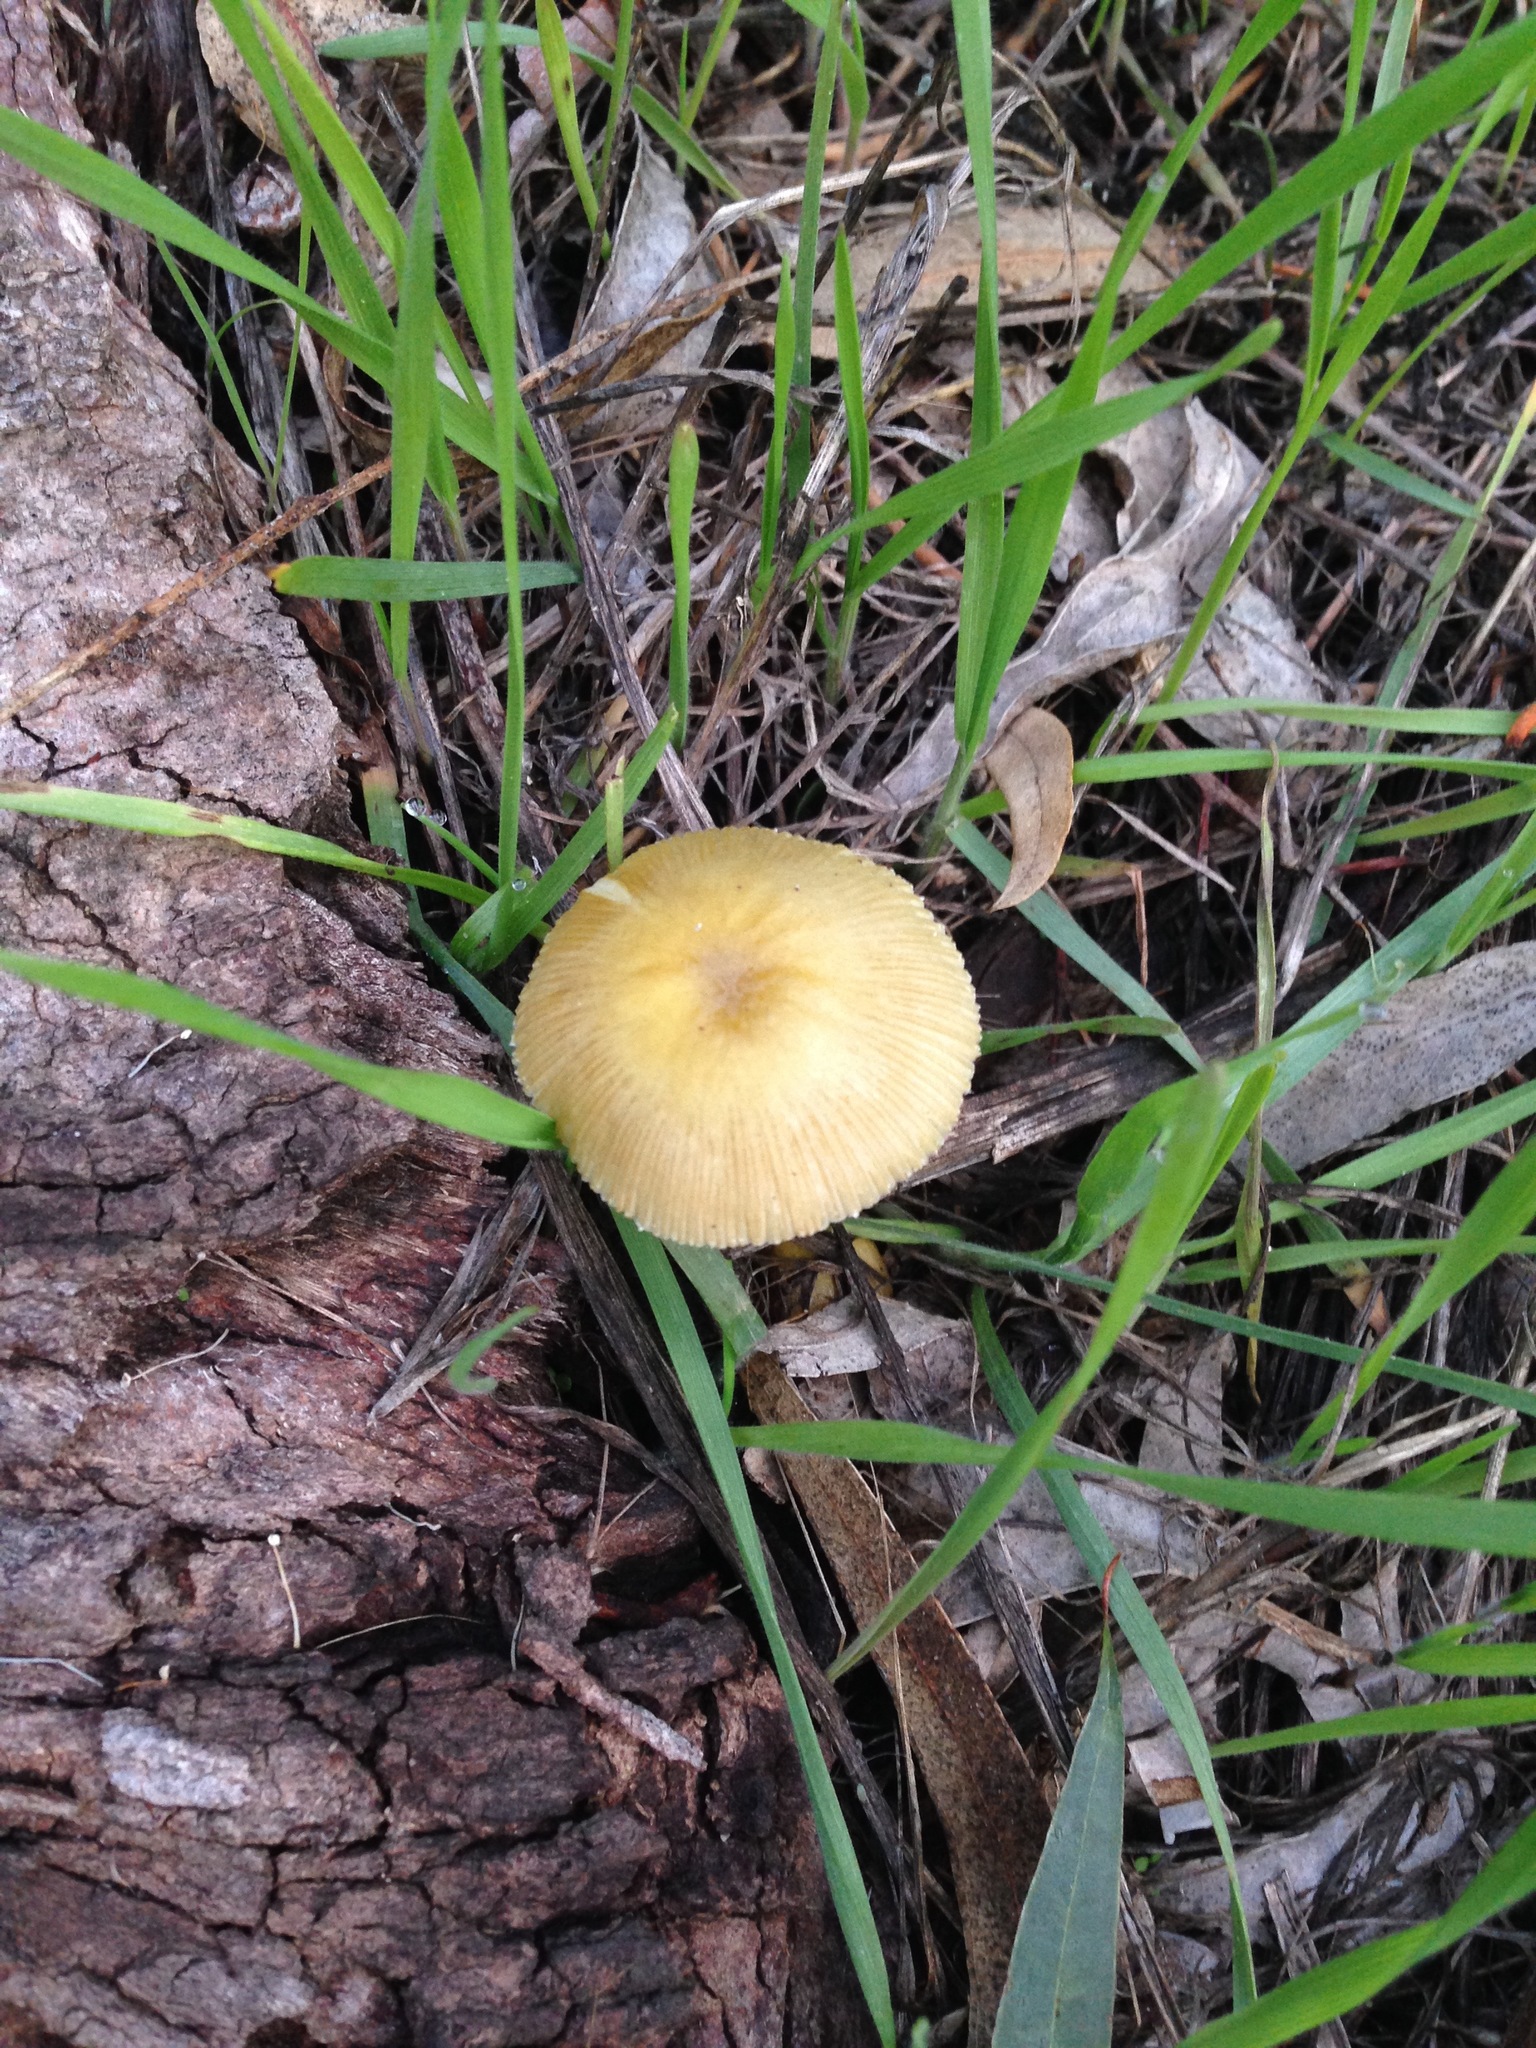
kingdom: Fungi
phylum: Basidiomycota
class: Agaricomycetes
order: Agaricales
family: Bolbitiaceae
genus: Bolbitius
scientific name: Bolbitius titubans
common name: Yellow fieldcap
